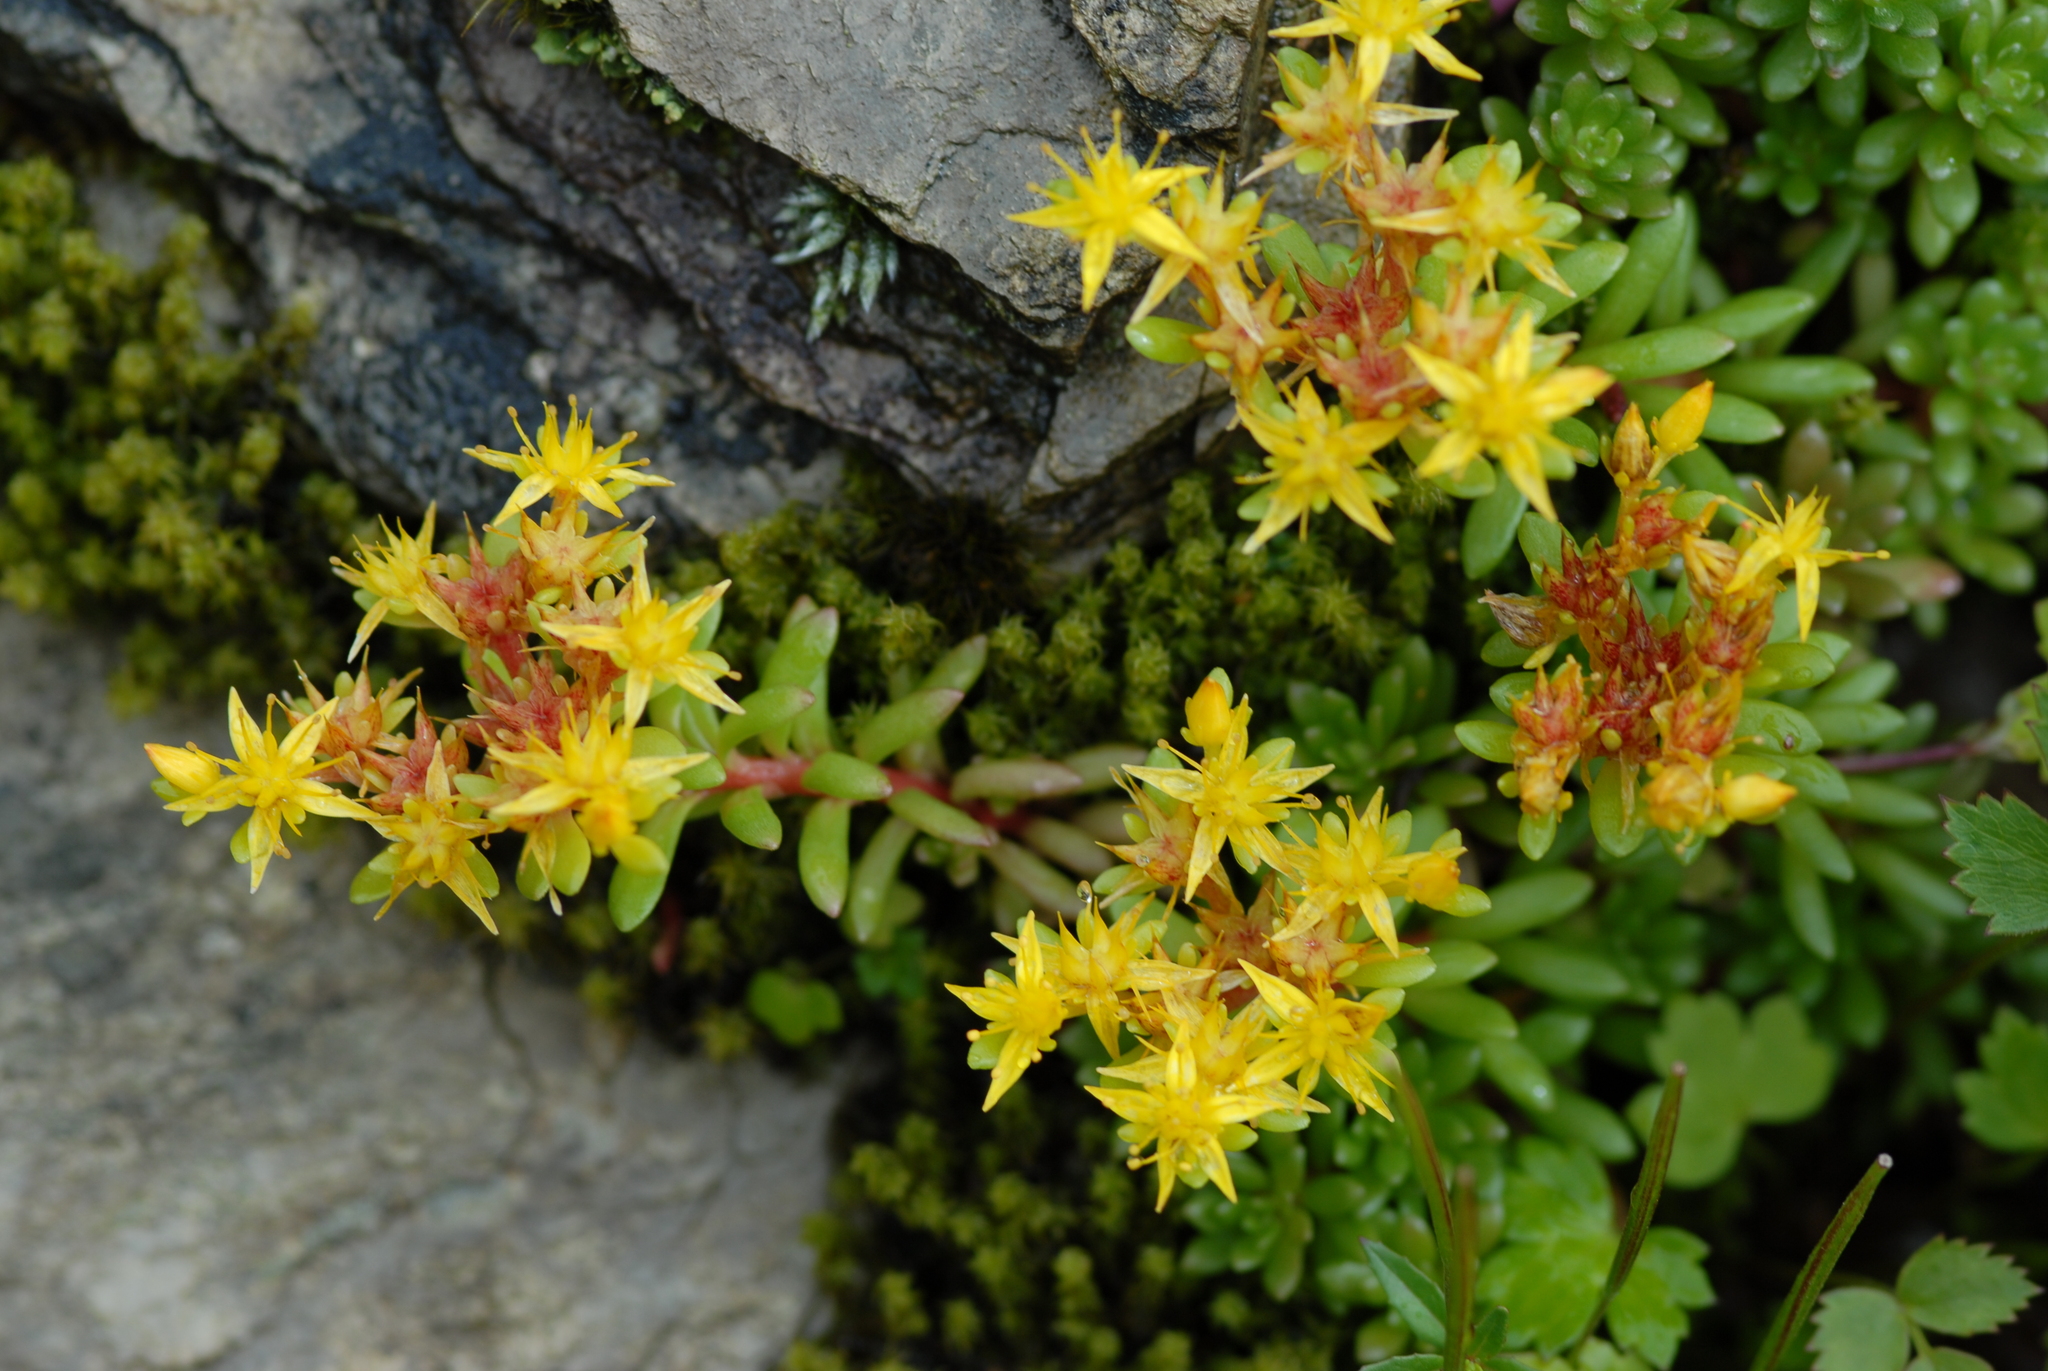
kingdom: Plantae
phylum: Tracheophyta
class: Magnoliopsida
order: Saxifragales
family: Crassulaceae
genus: Sedum
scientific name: Sedum morrisonense
